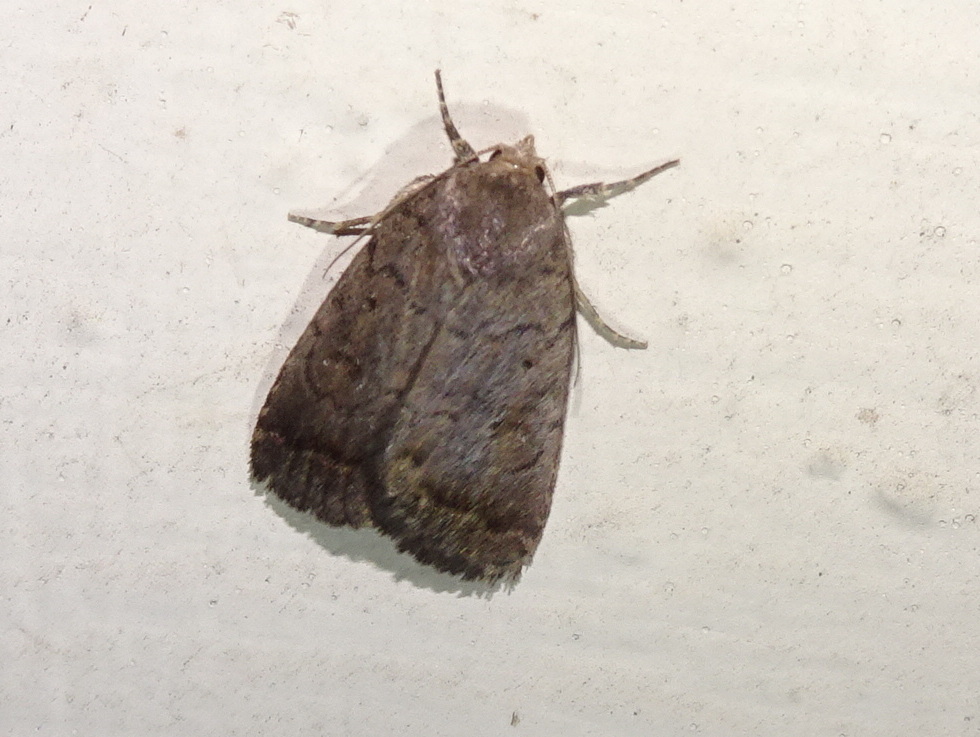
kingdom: Animalia
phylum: Arthropoda
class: Insecta
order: Lepidoptera
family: Noctuidae
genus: Athetis
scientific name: Athetis tarda
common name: Slowpoke moth
